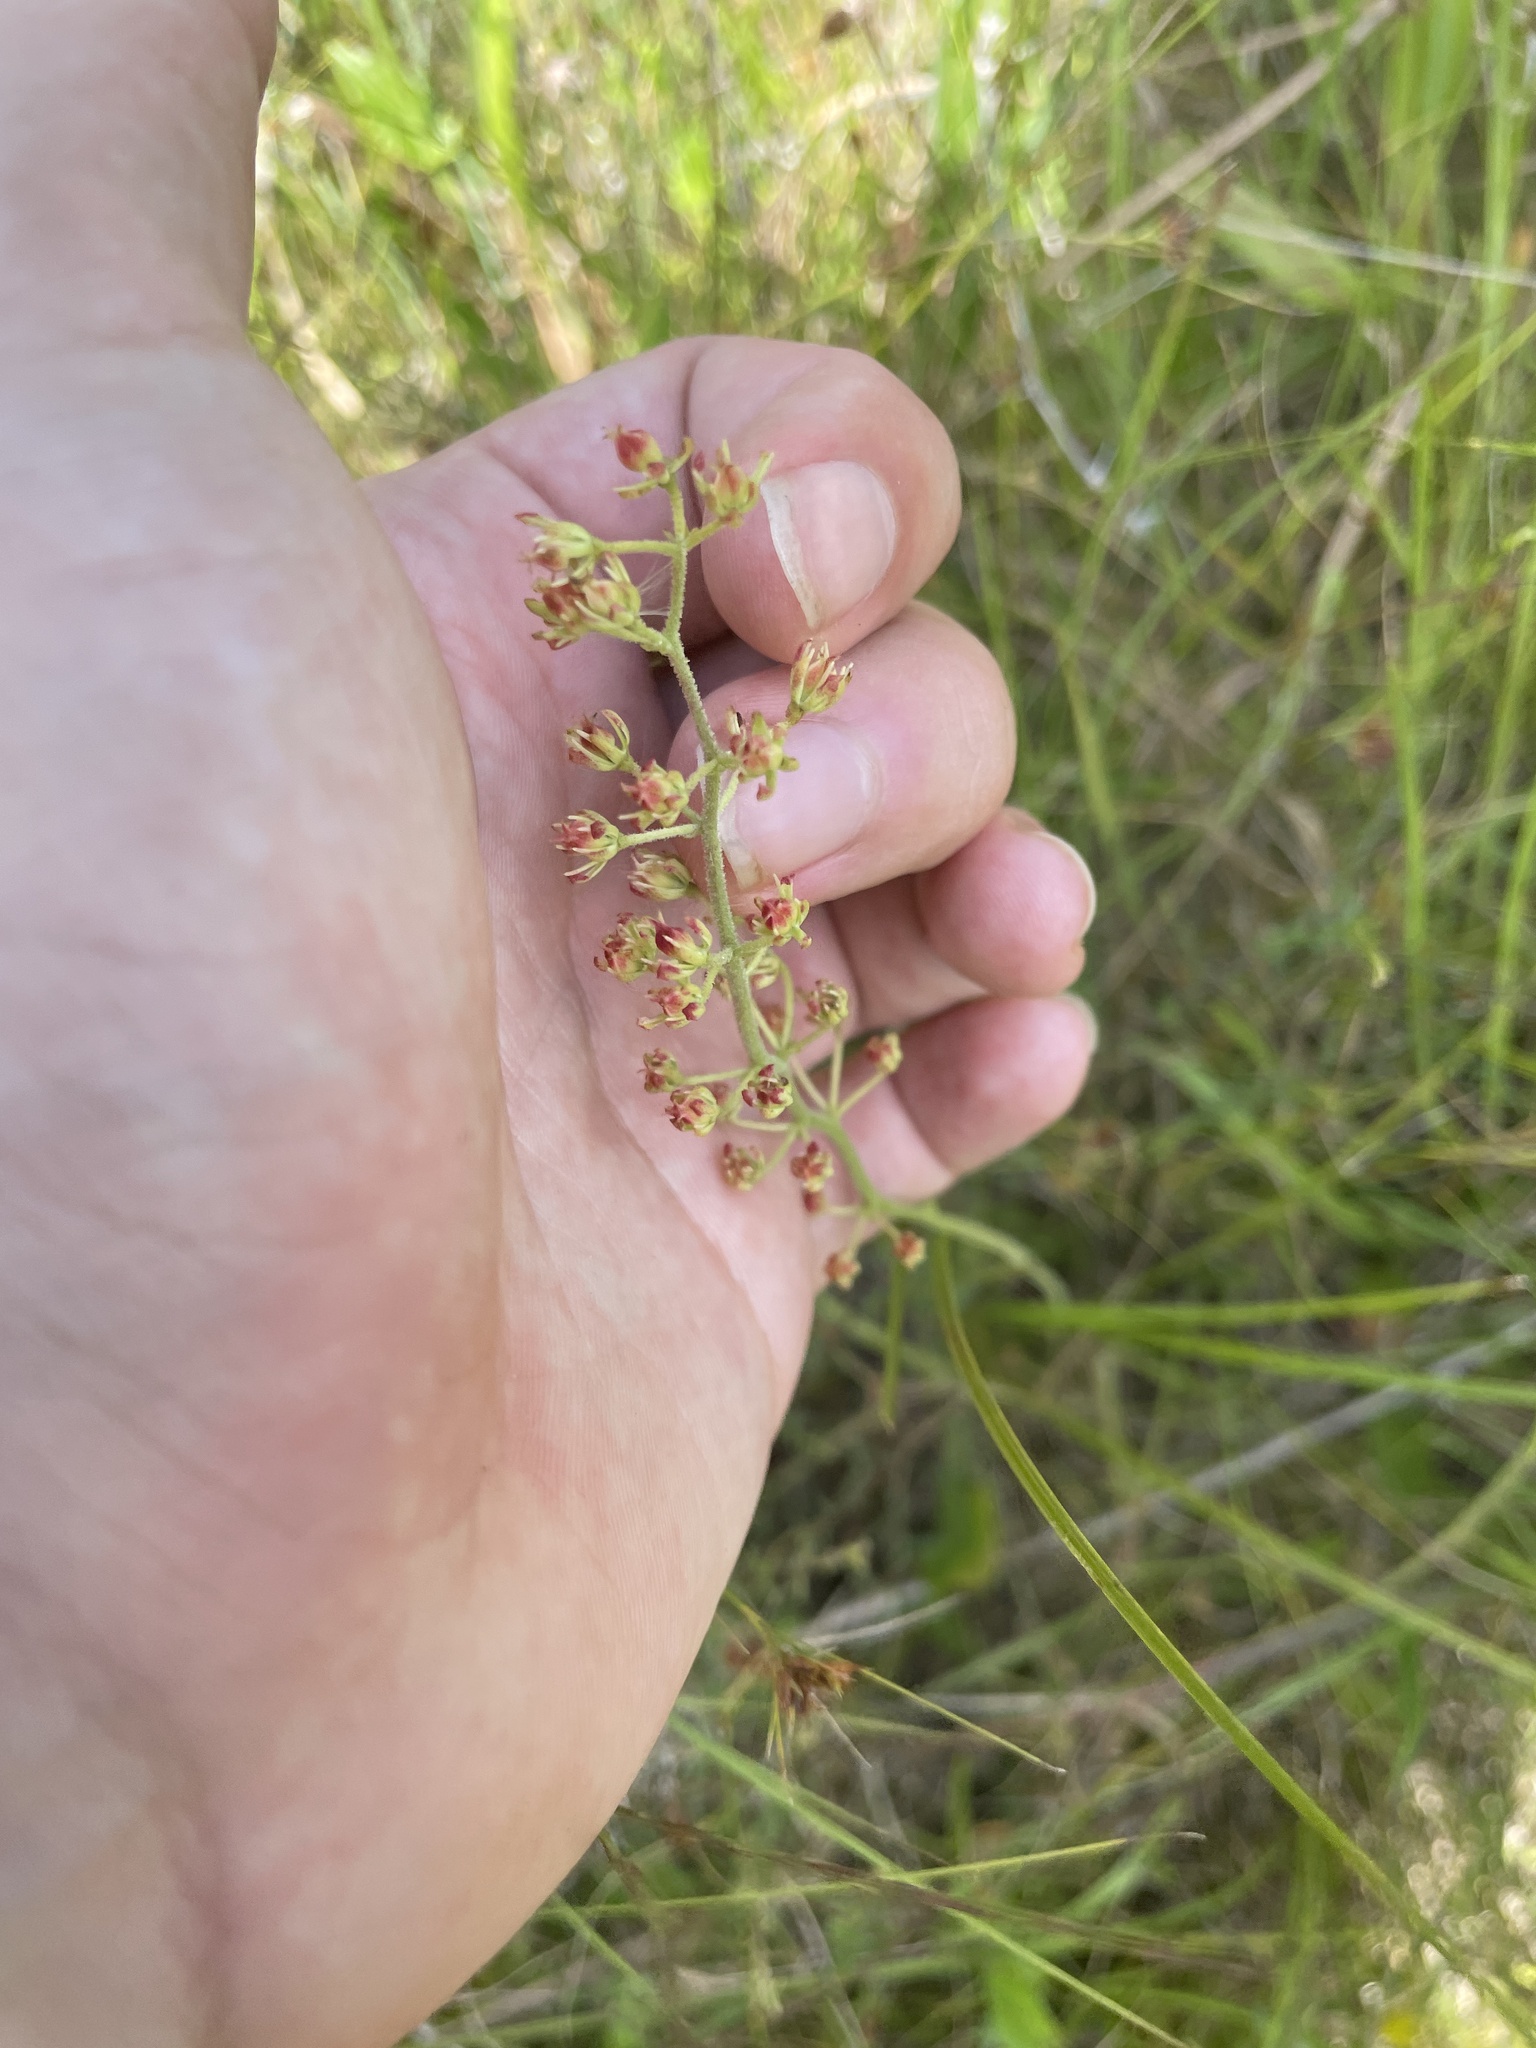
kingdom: Plantae
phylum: Tracheophyta
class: Liliopsida
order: Alismatales
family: Tofieldiaceae
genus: Triantha
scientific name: Triantha racemosa
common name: Coastal false asphodel
